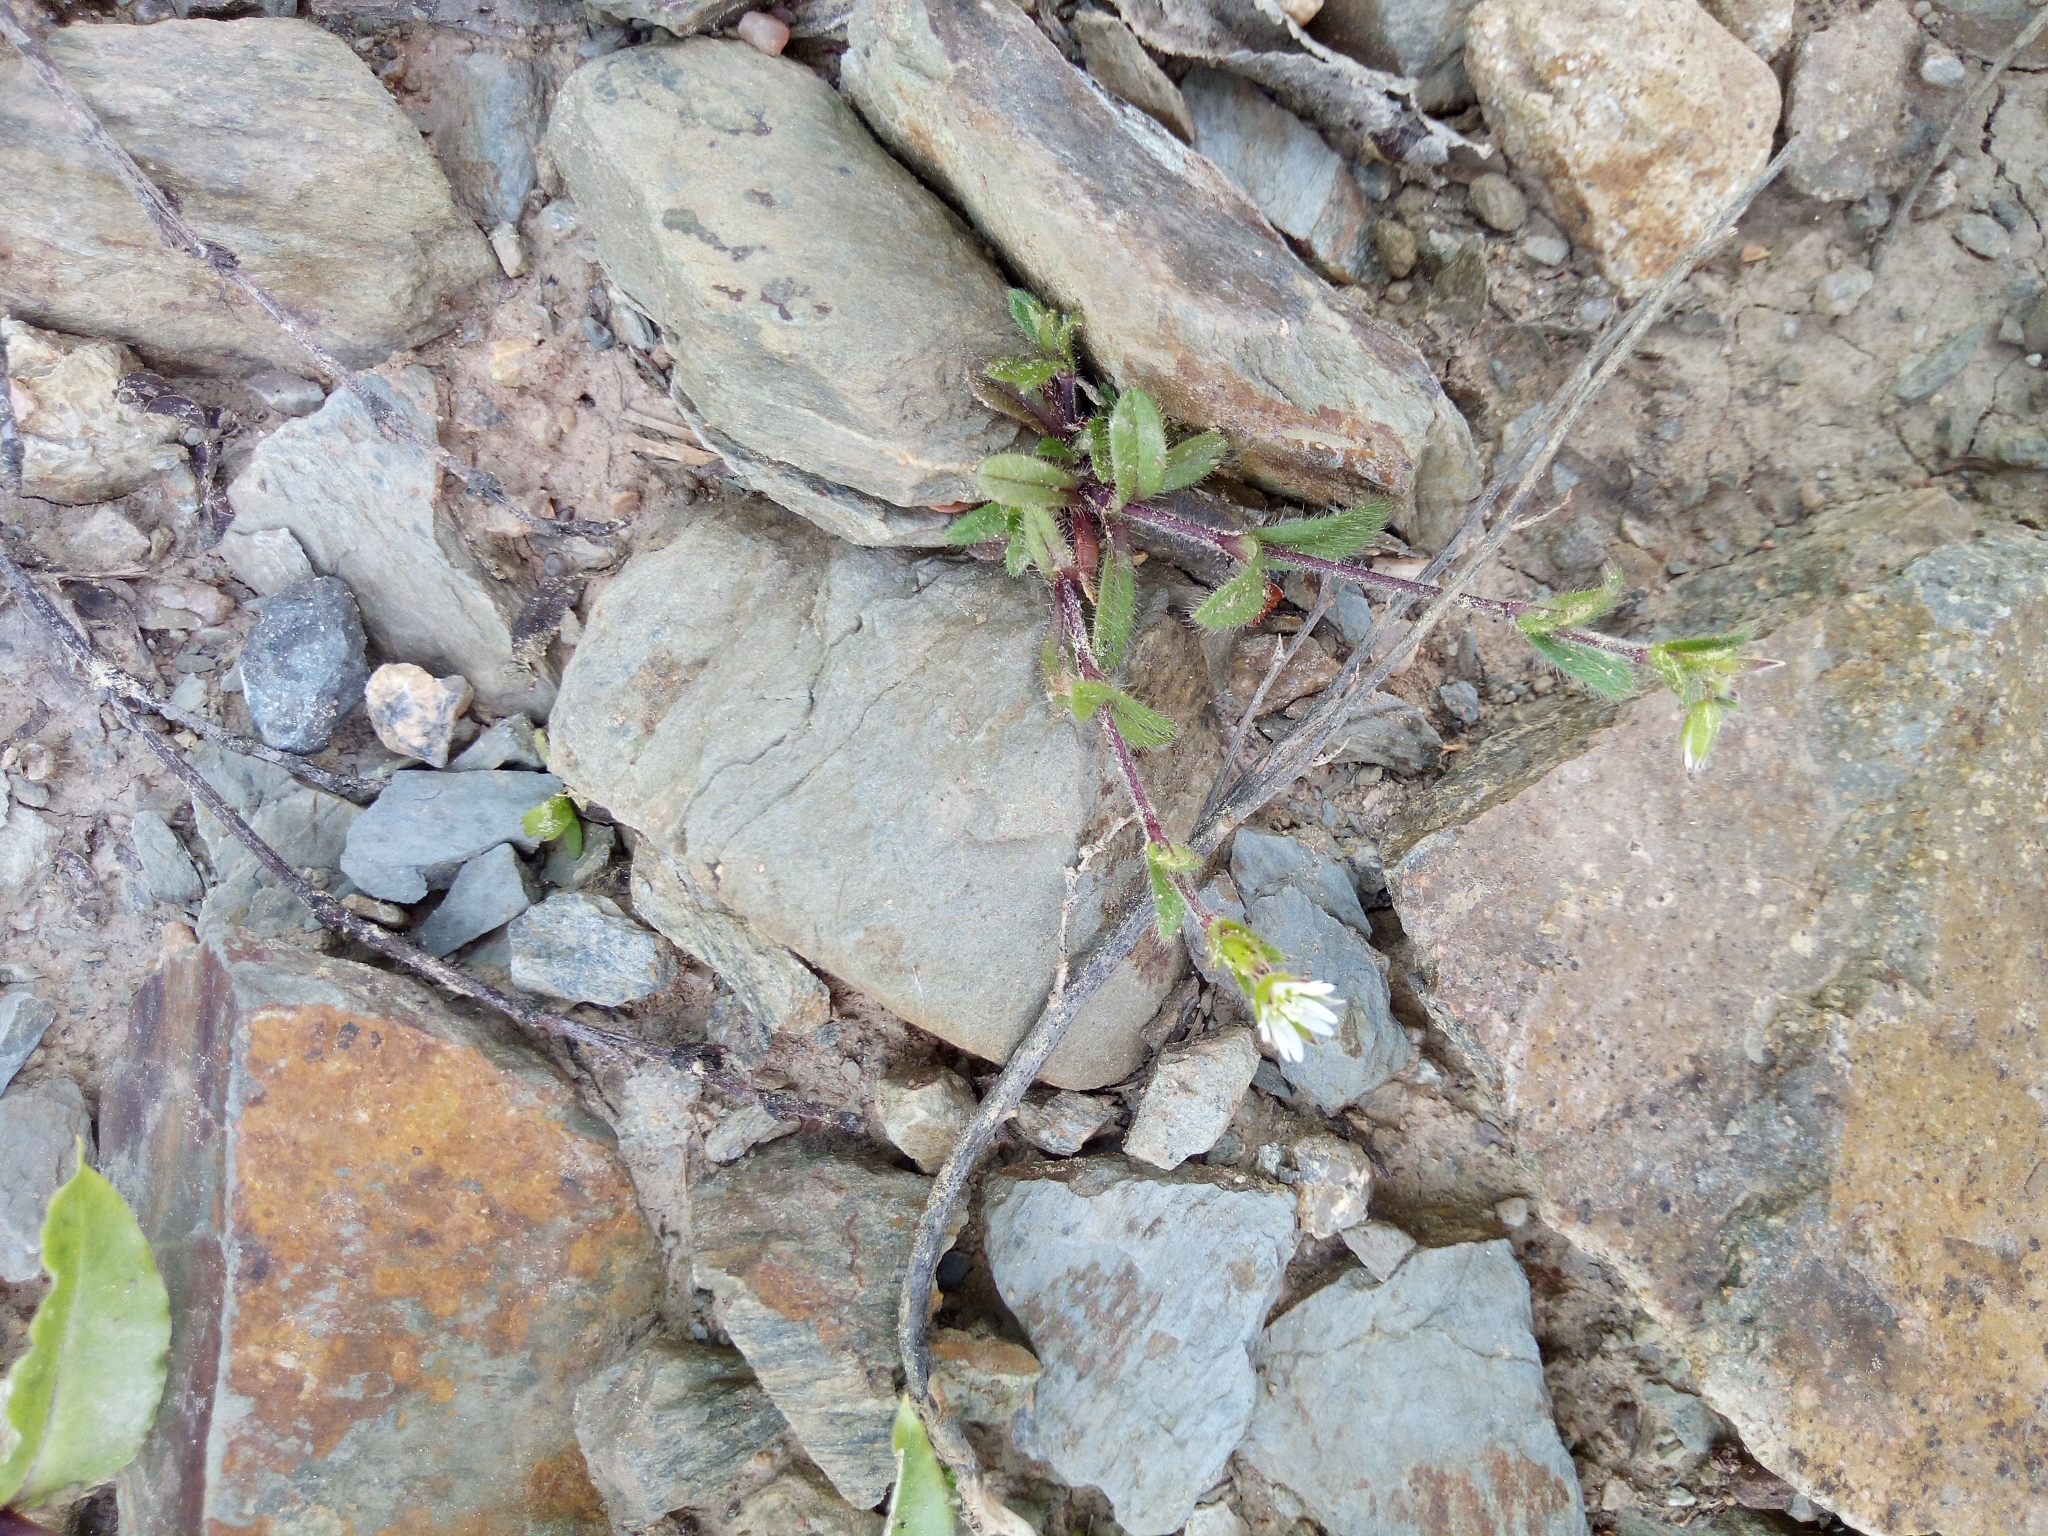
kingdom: Plantae
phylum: Tracheophyta
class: Magnoliopsida
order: Caryophyllales
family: Caryophyllaceae
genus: Cerastium
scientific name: Cerastium holosteoides
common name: Big chickweed
